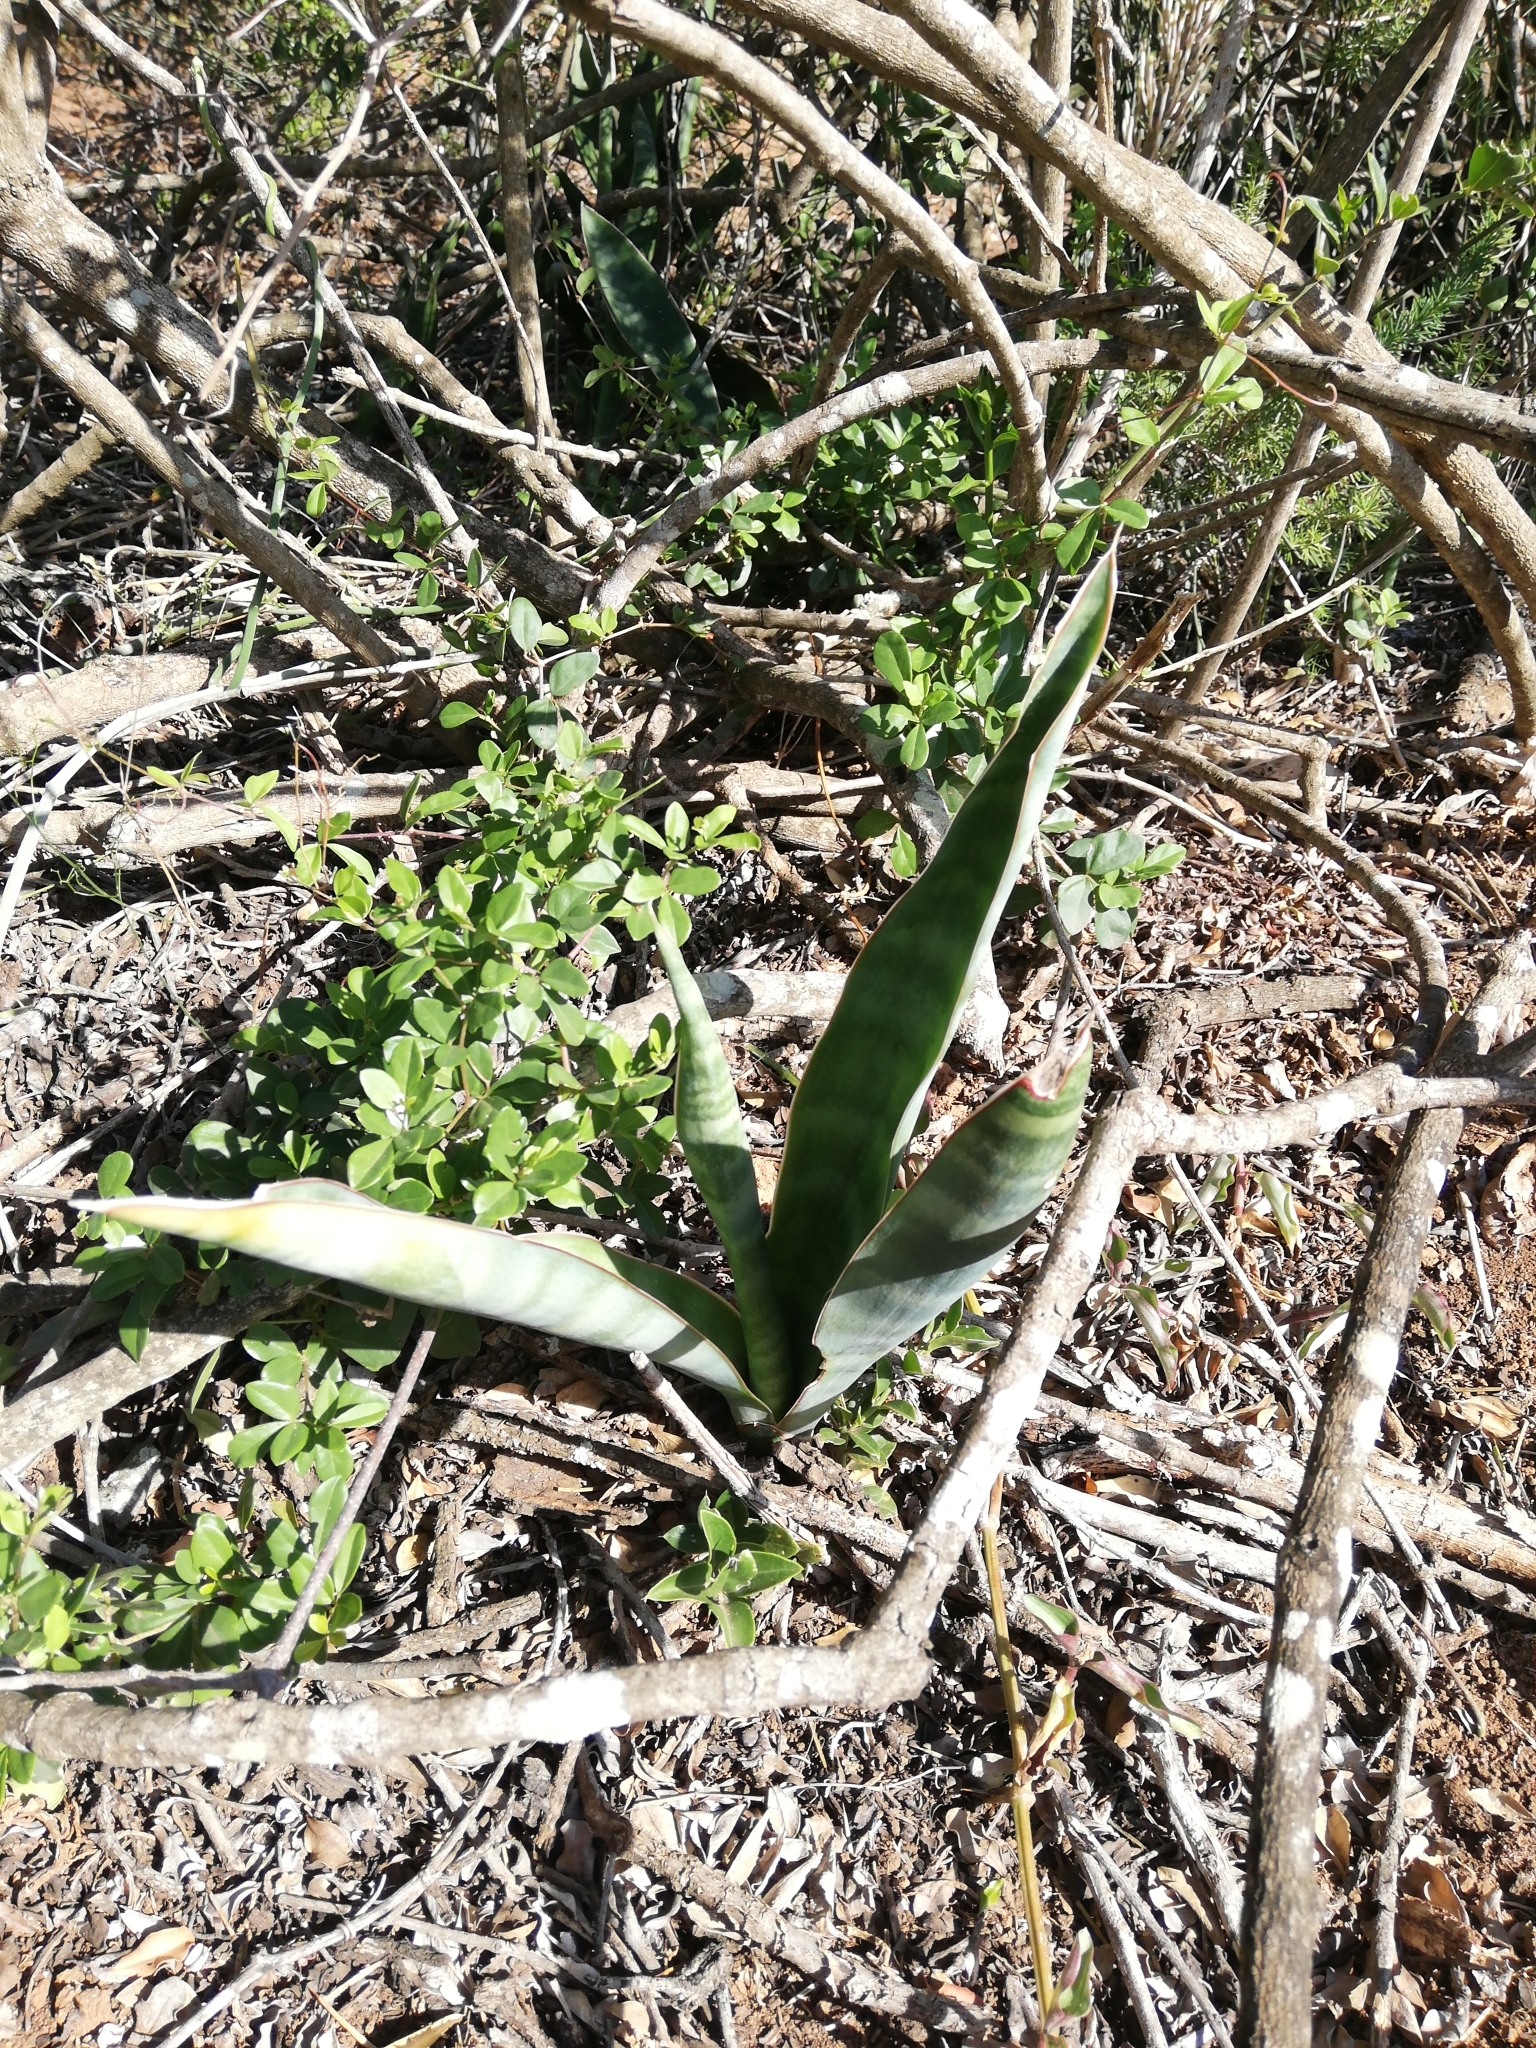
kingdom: Plantae
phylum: Tracheophyta
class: Liliopsida
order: Asparagales
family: Asparagaceae
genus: Dracaena
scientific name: Dracaena hyacinthoides
